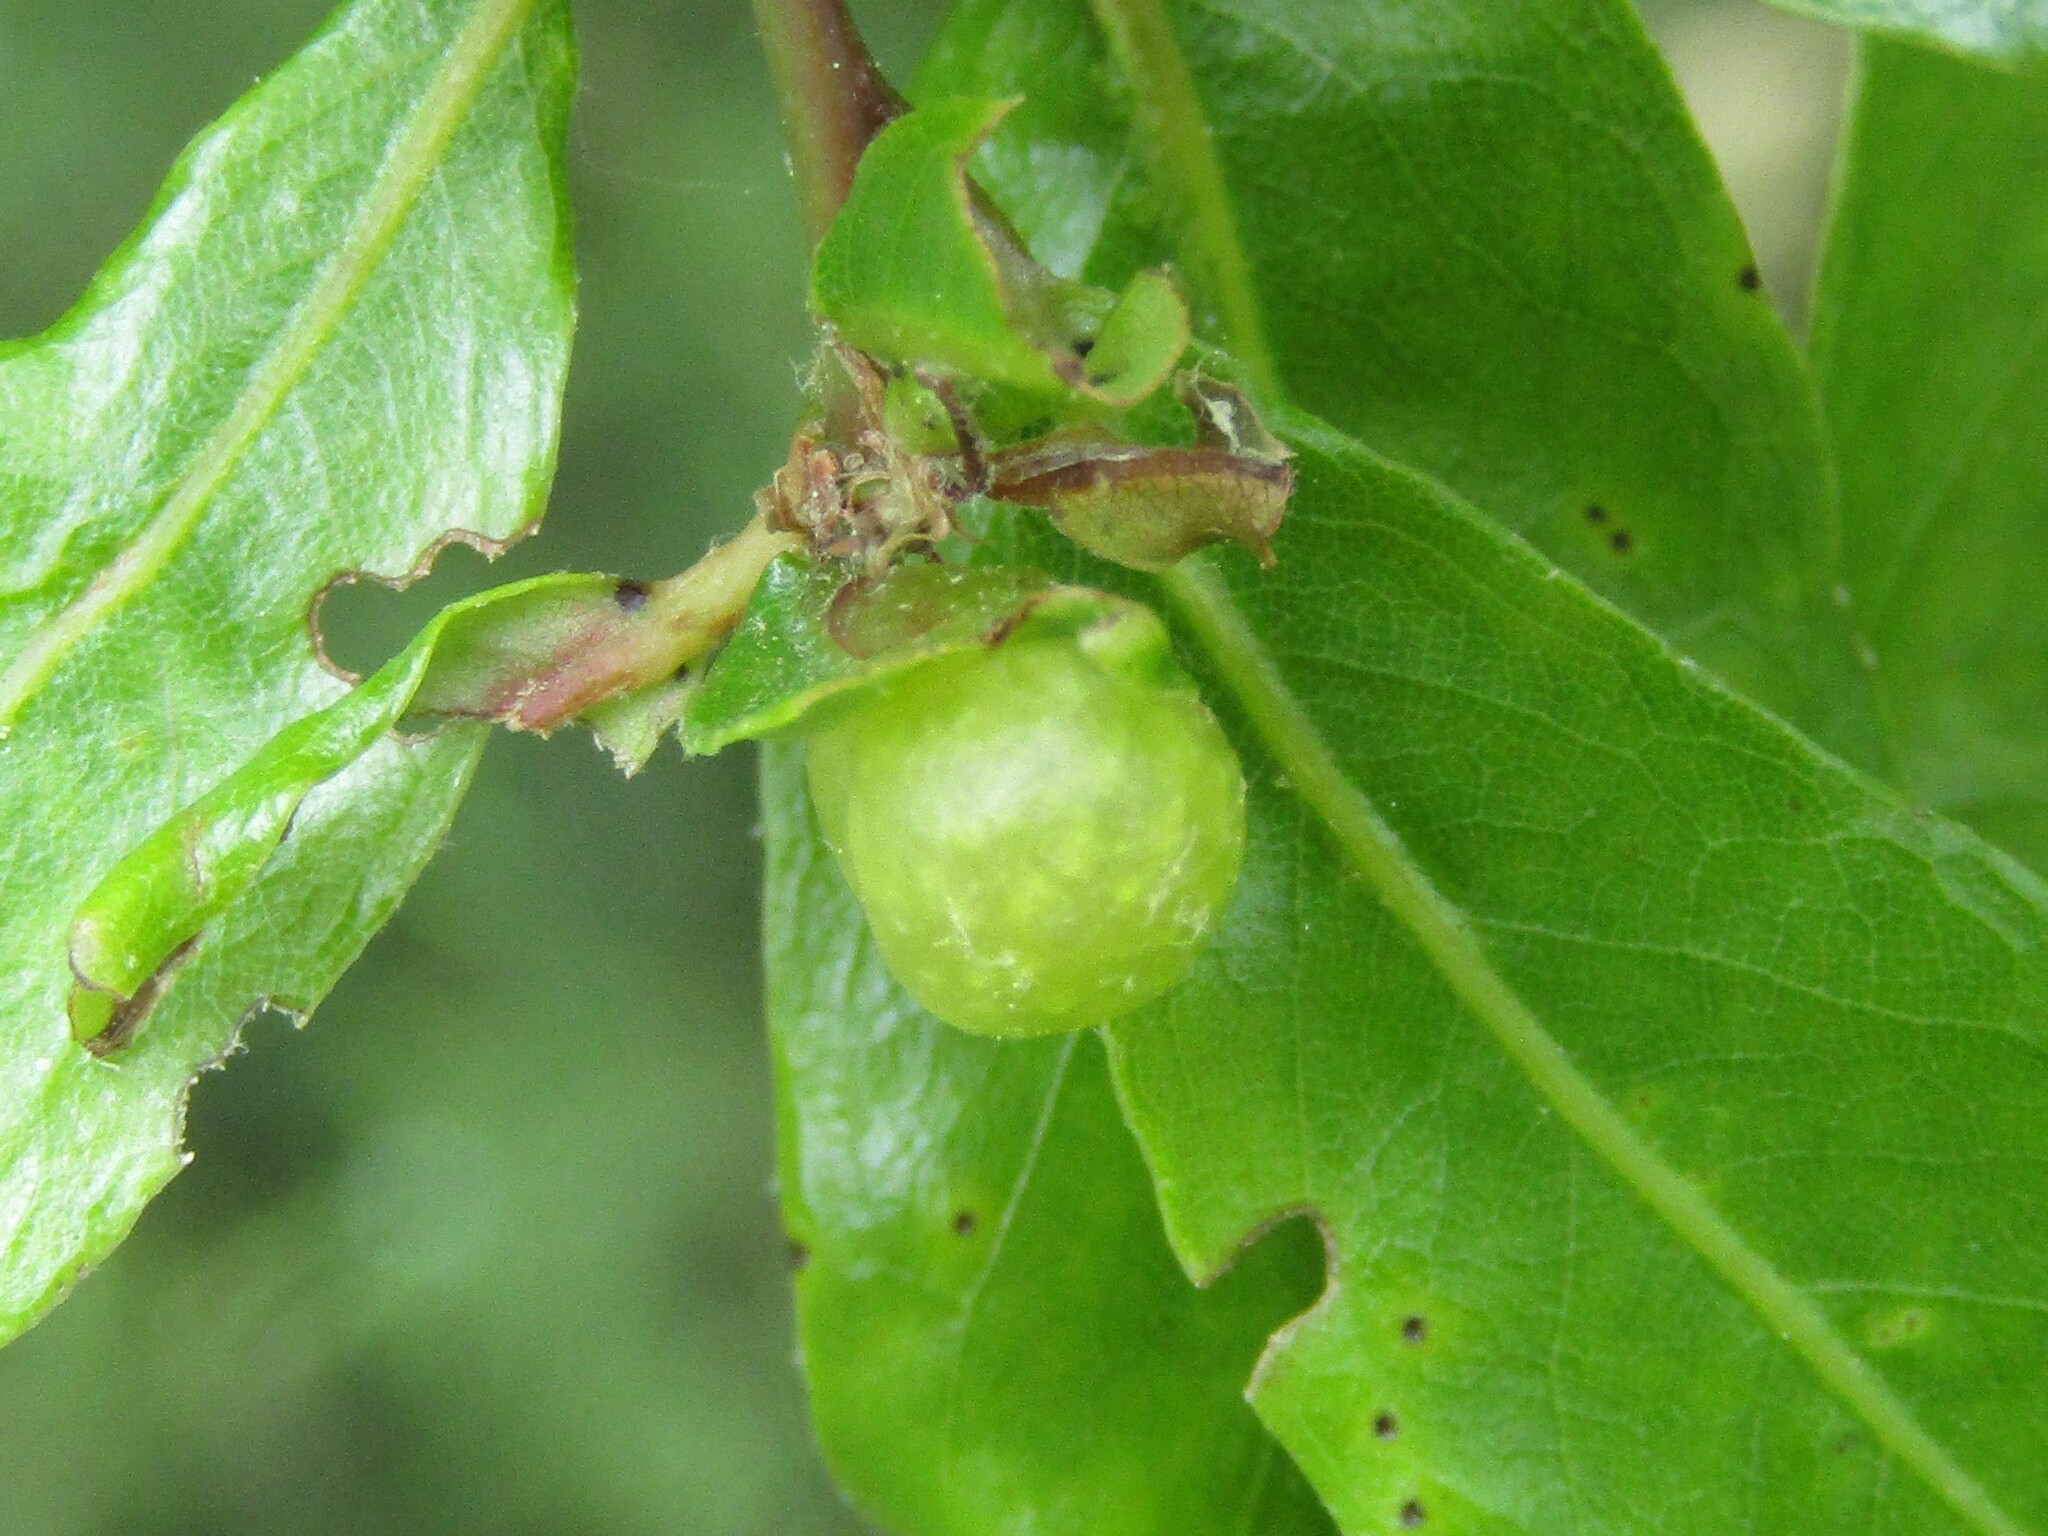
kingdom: Animalia
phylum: Arthropoda
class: Insecta
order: Hymenoptera
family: Cynipidae
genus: Dryocosmus
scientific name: Dryocosmus quercuspalustris
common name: Succulent oak gall wasp
